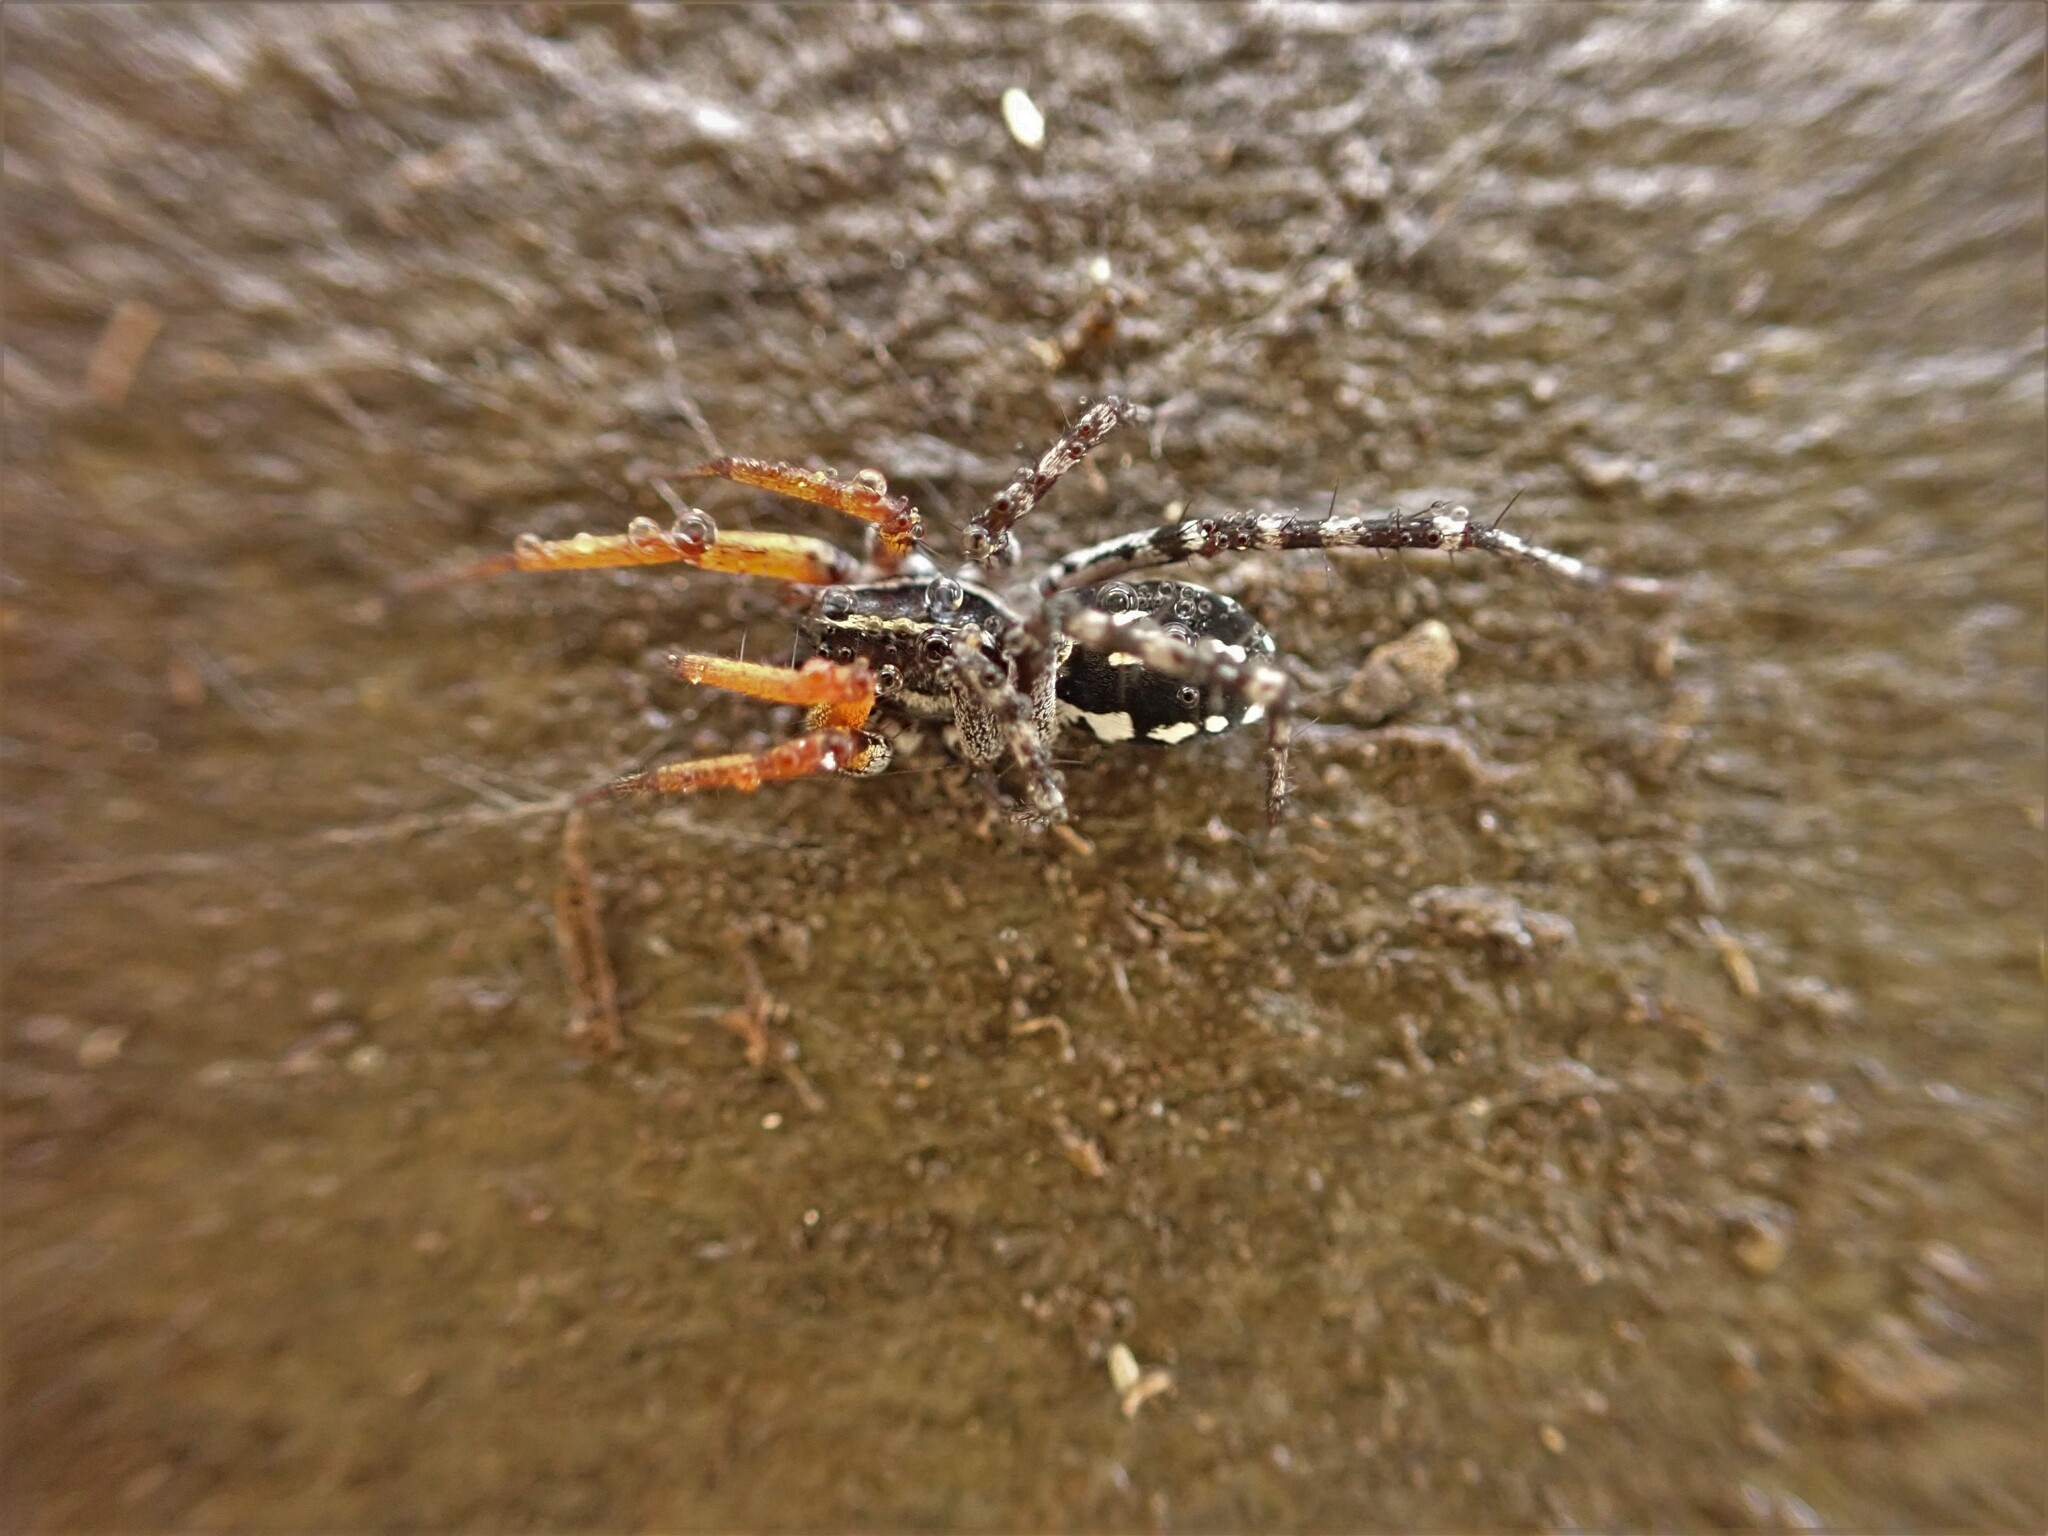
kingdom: Animalia
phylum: Arthropoda
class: Arachnida
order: Araneae
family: Corinnidae
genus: Nyssus
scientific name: Nyssus coloripes
